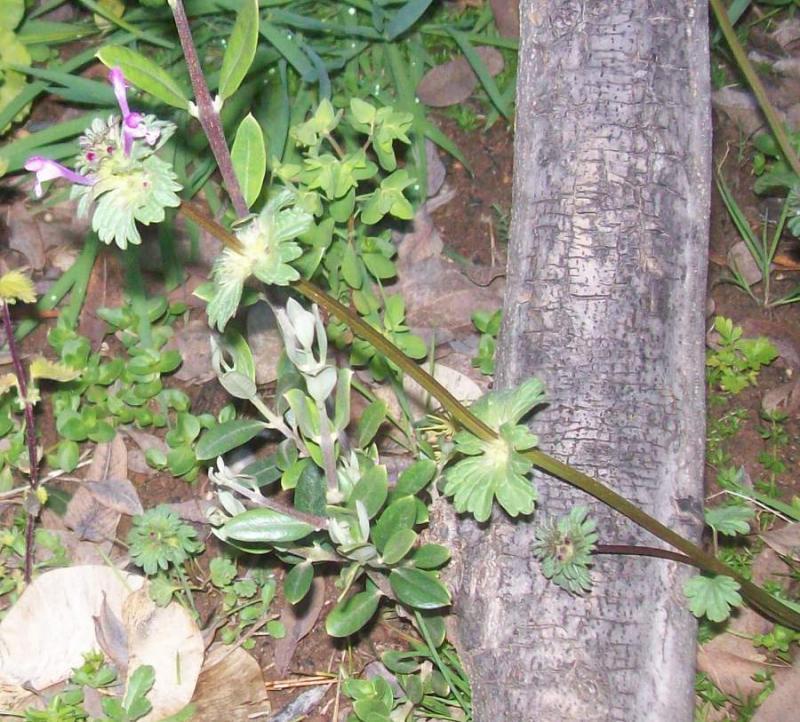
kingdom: Plantae
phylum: Tracheophyta
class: Magnoliopsida
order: Lamiales
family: Lamiaceae
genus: Lamium
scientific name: Lamium amplexicaule
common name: Henbit dead-nettle
